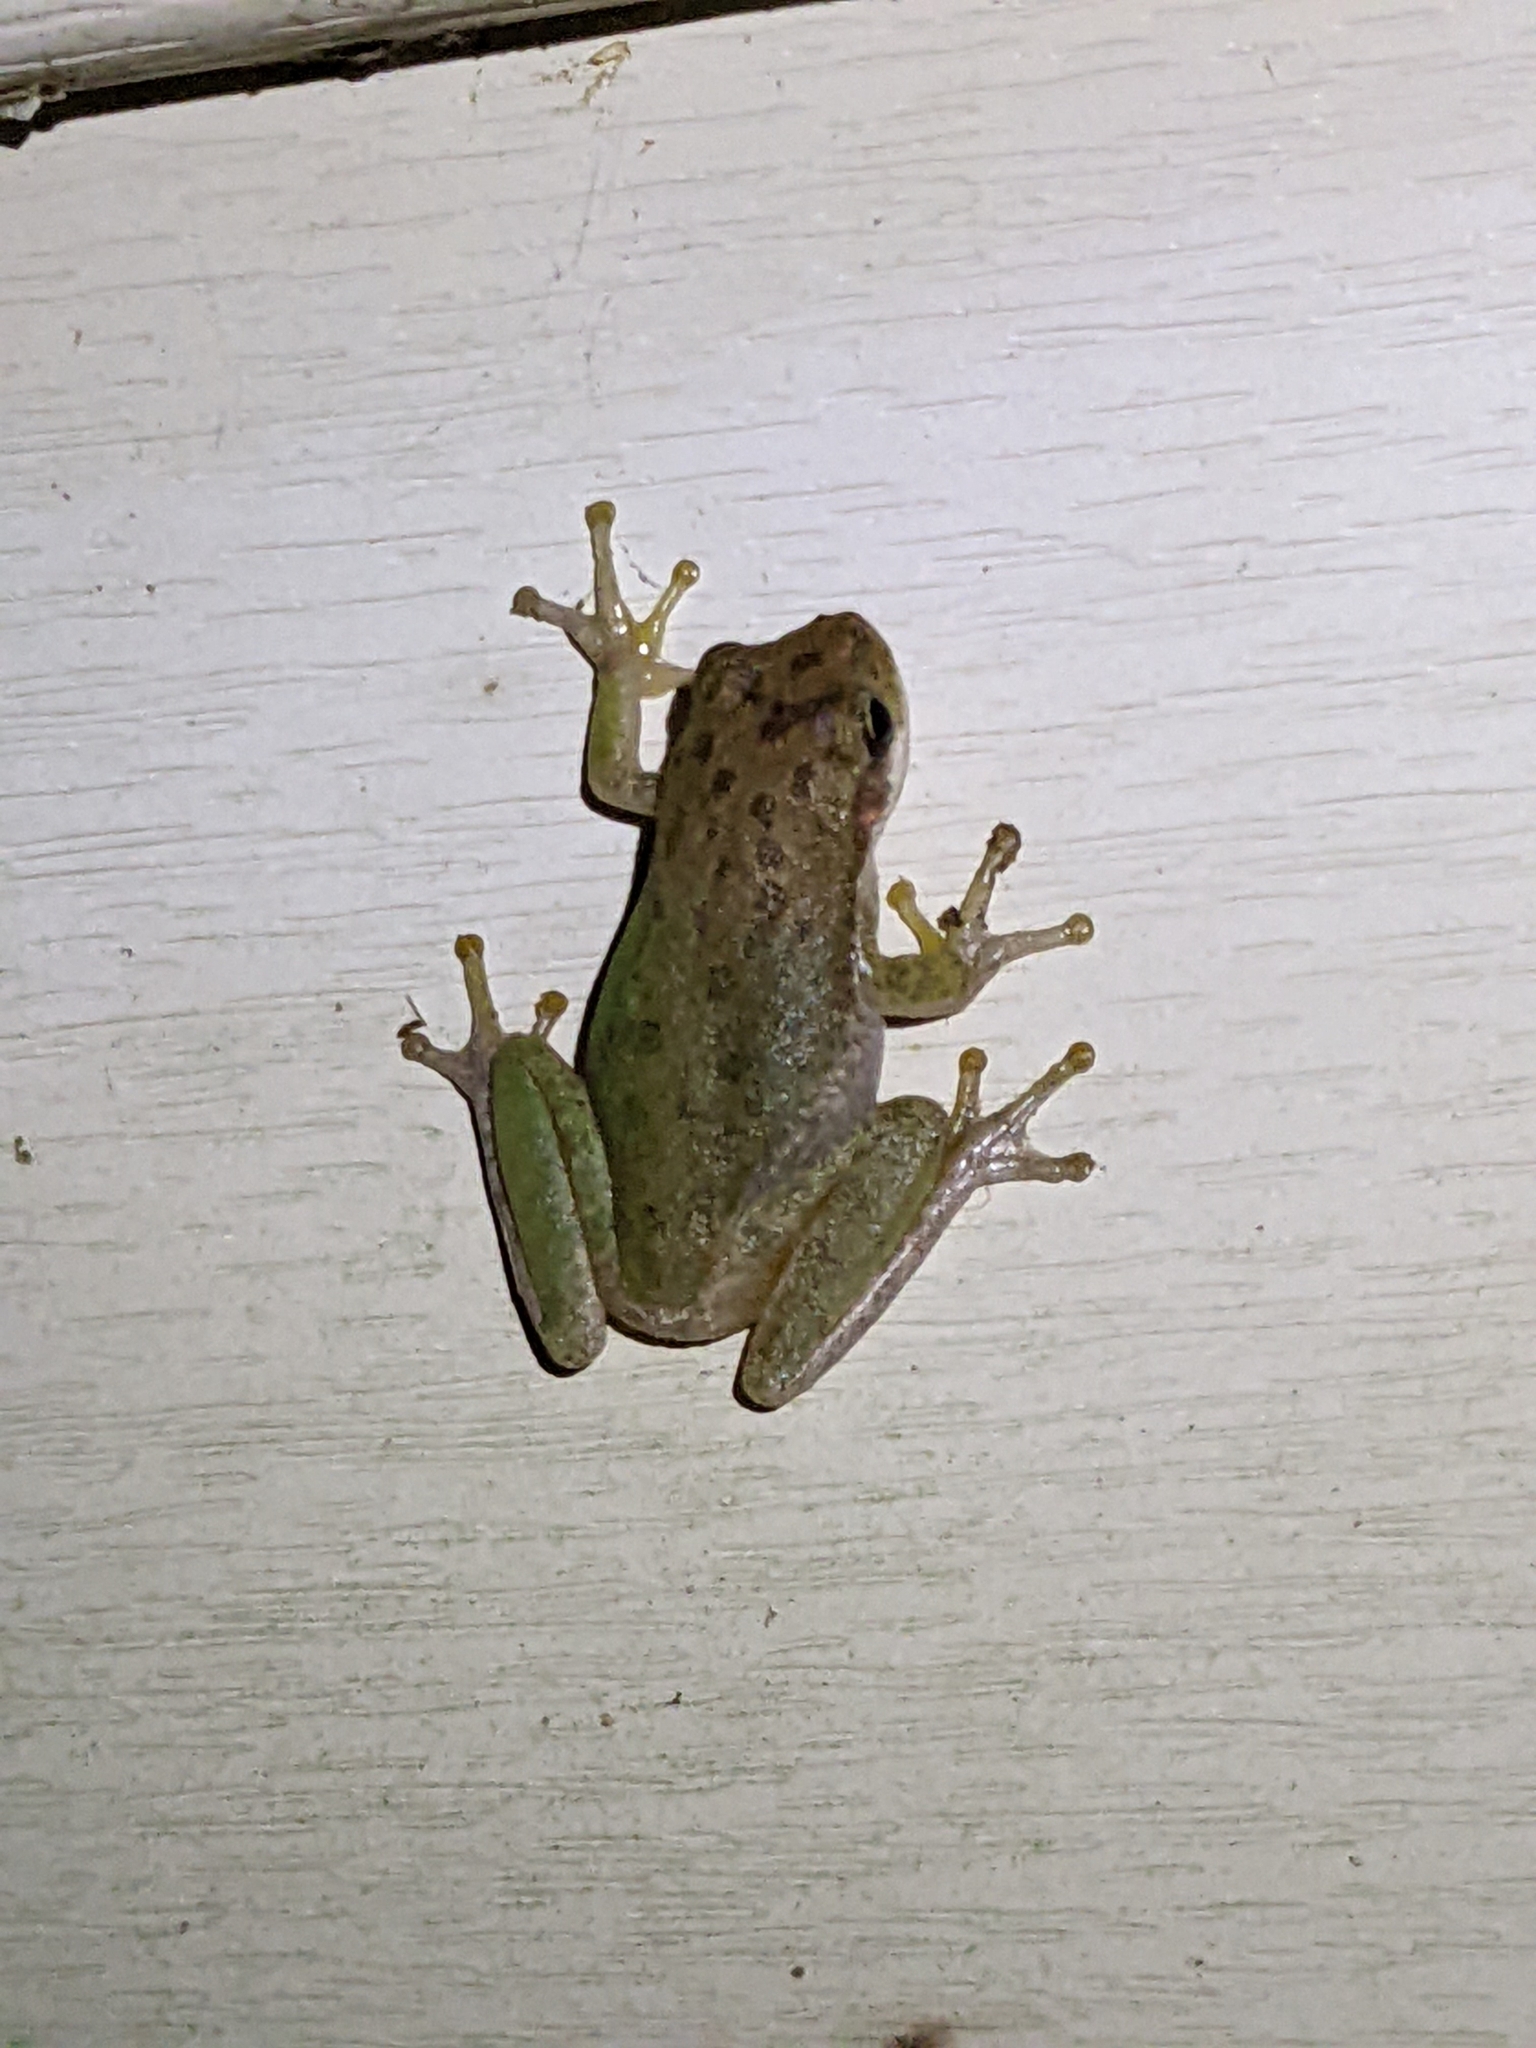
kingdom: Animalia
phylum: Chordata
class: Amphibia
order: Anura
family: Hylidae
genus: Dryophytes
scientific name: Dryophytes squirellus
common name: Squirrel treefrog
